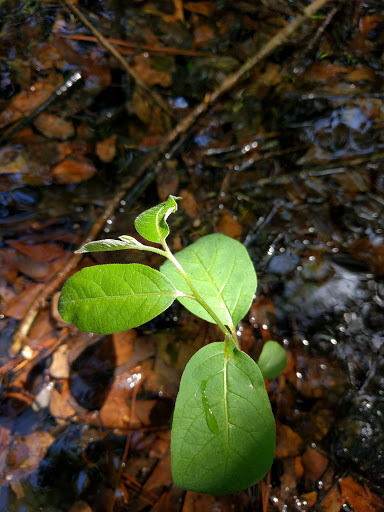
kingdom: Plantae
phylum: Tracheophyta
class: Magnoliopsida
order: Ericales
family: Ebenaceae
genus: Diospyros
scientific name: Diospyros virginiana
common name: Persimmon
